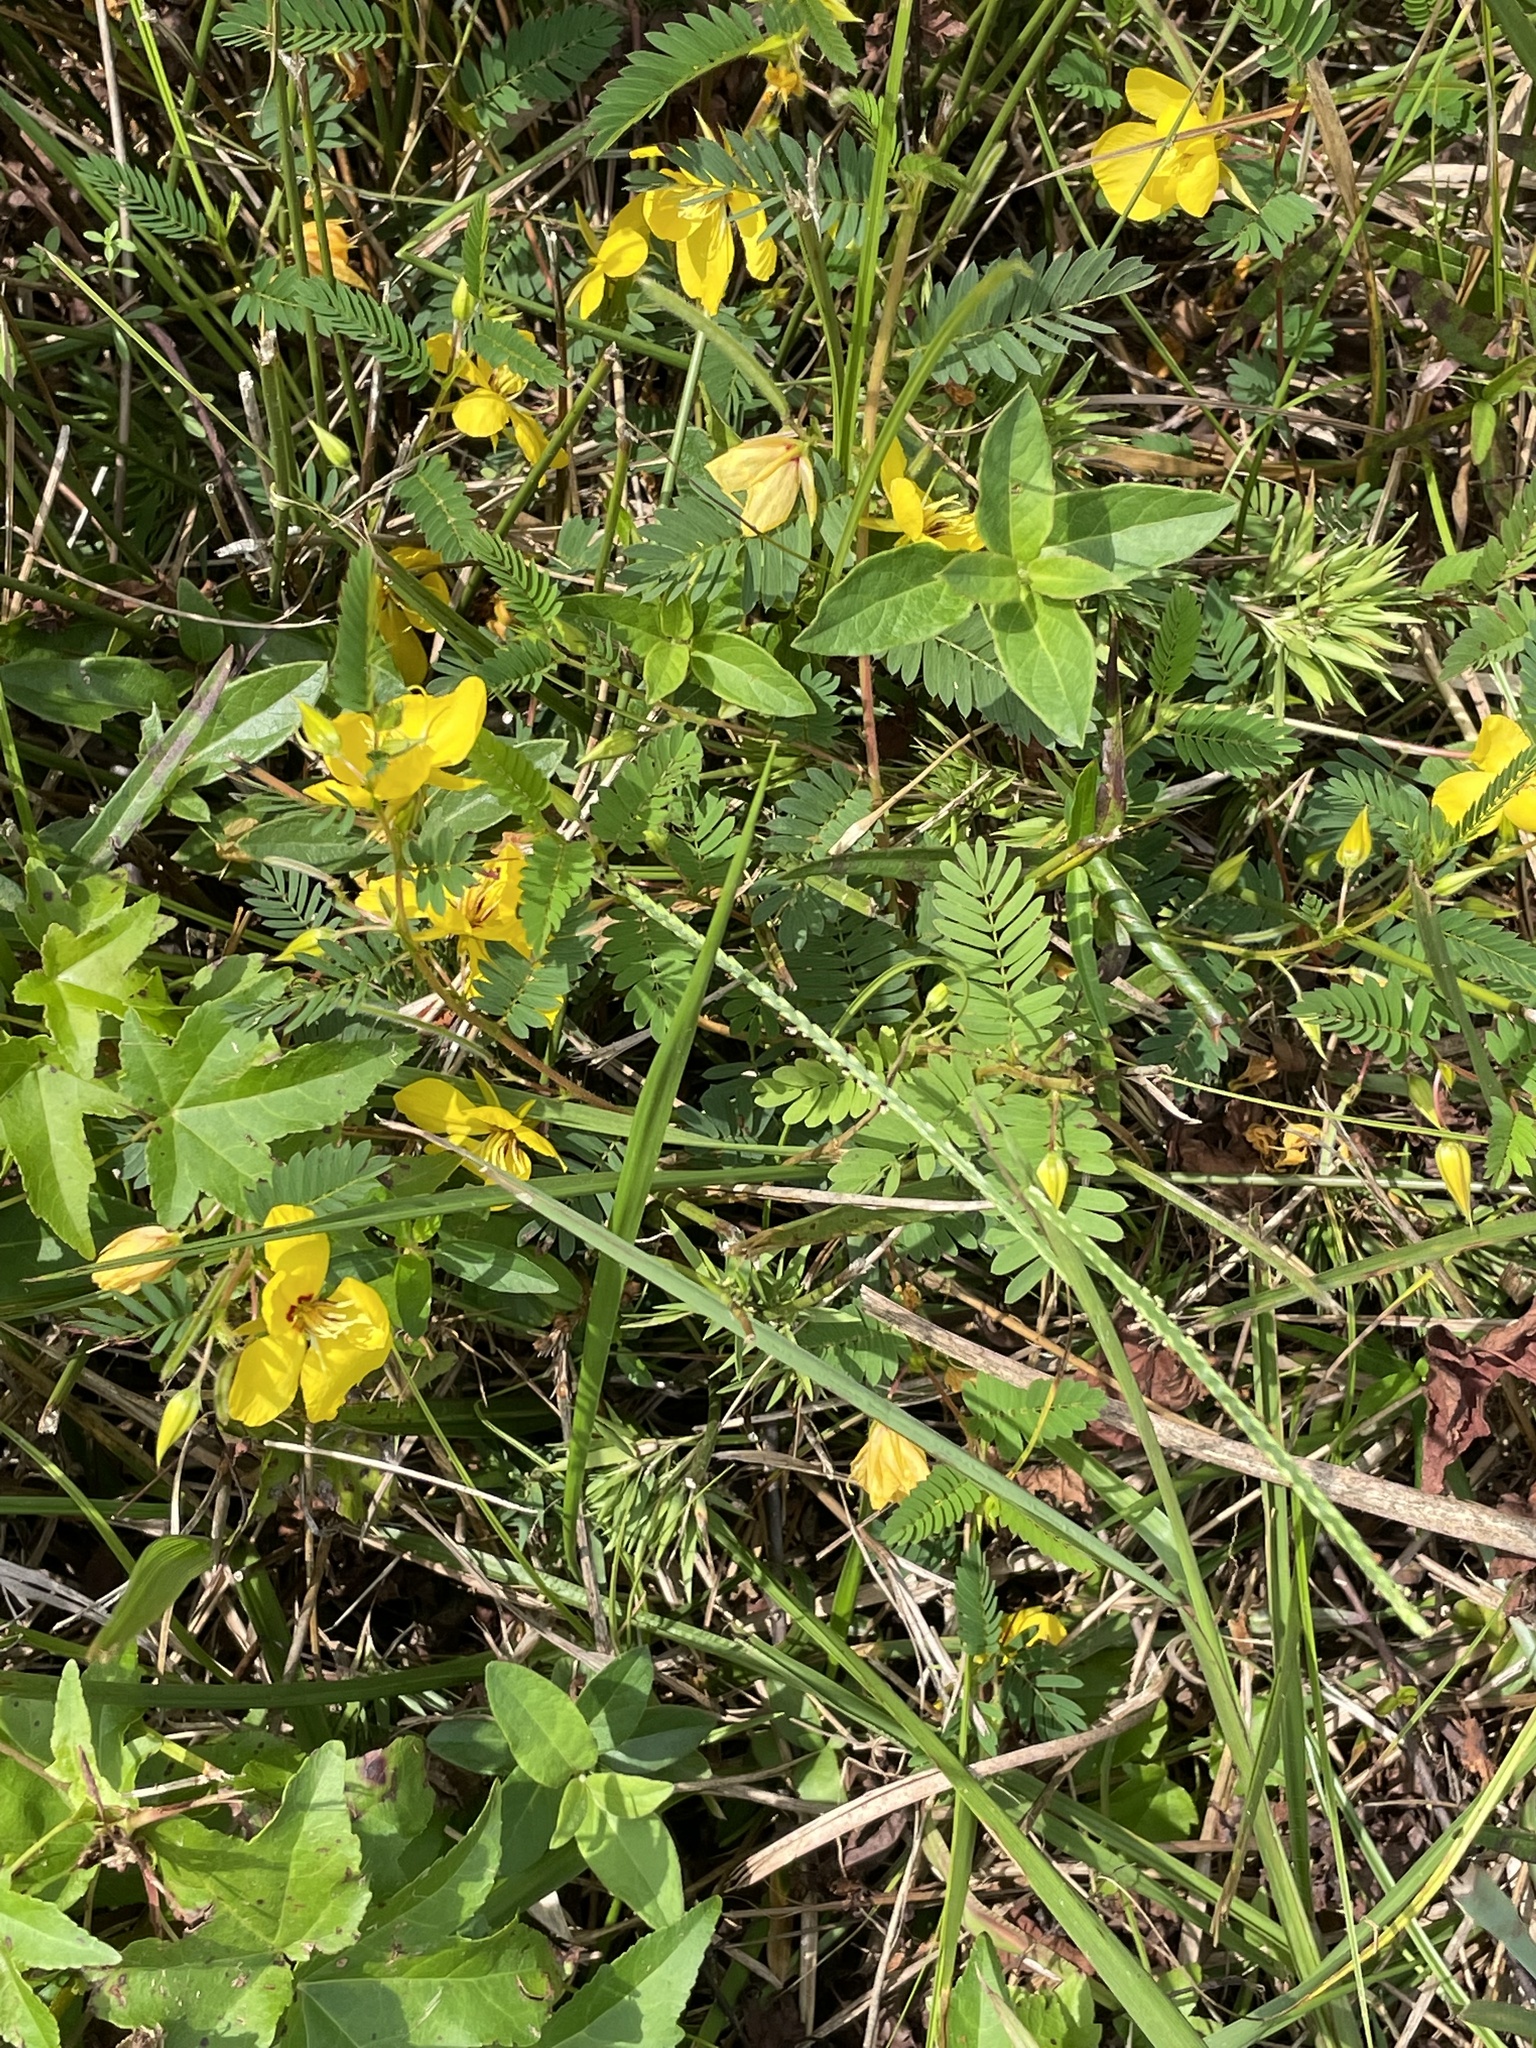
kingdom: Plantae
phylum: Tracheophyta
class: Magnoliopsida
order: Fabales
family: Fabaceae
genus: Chamaecrista
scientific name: Chamaecrista fasciculata
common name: Golden cassia
